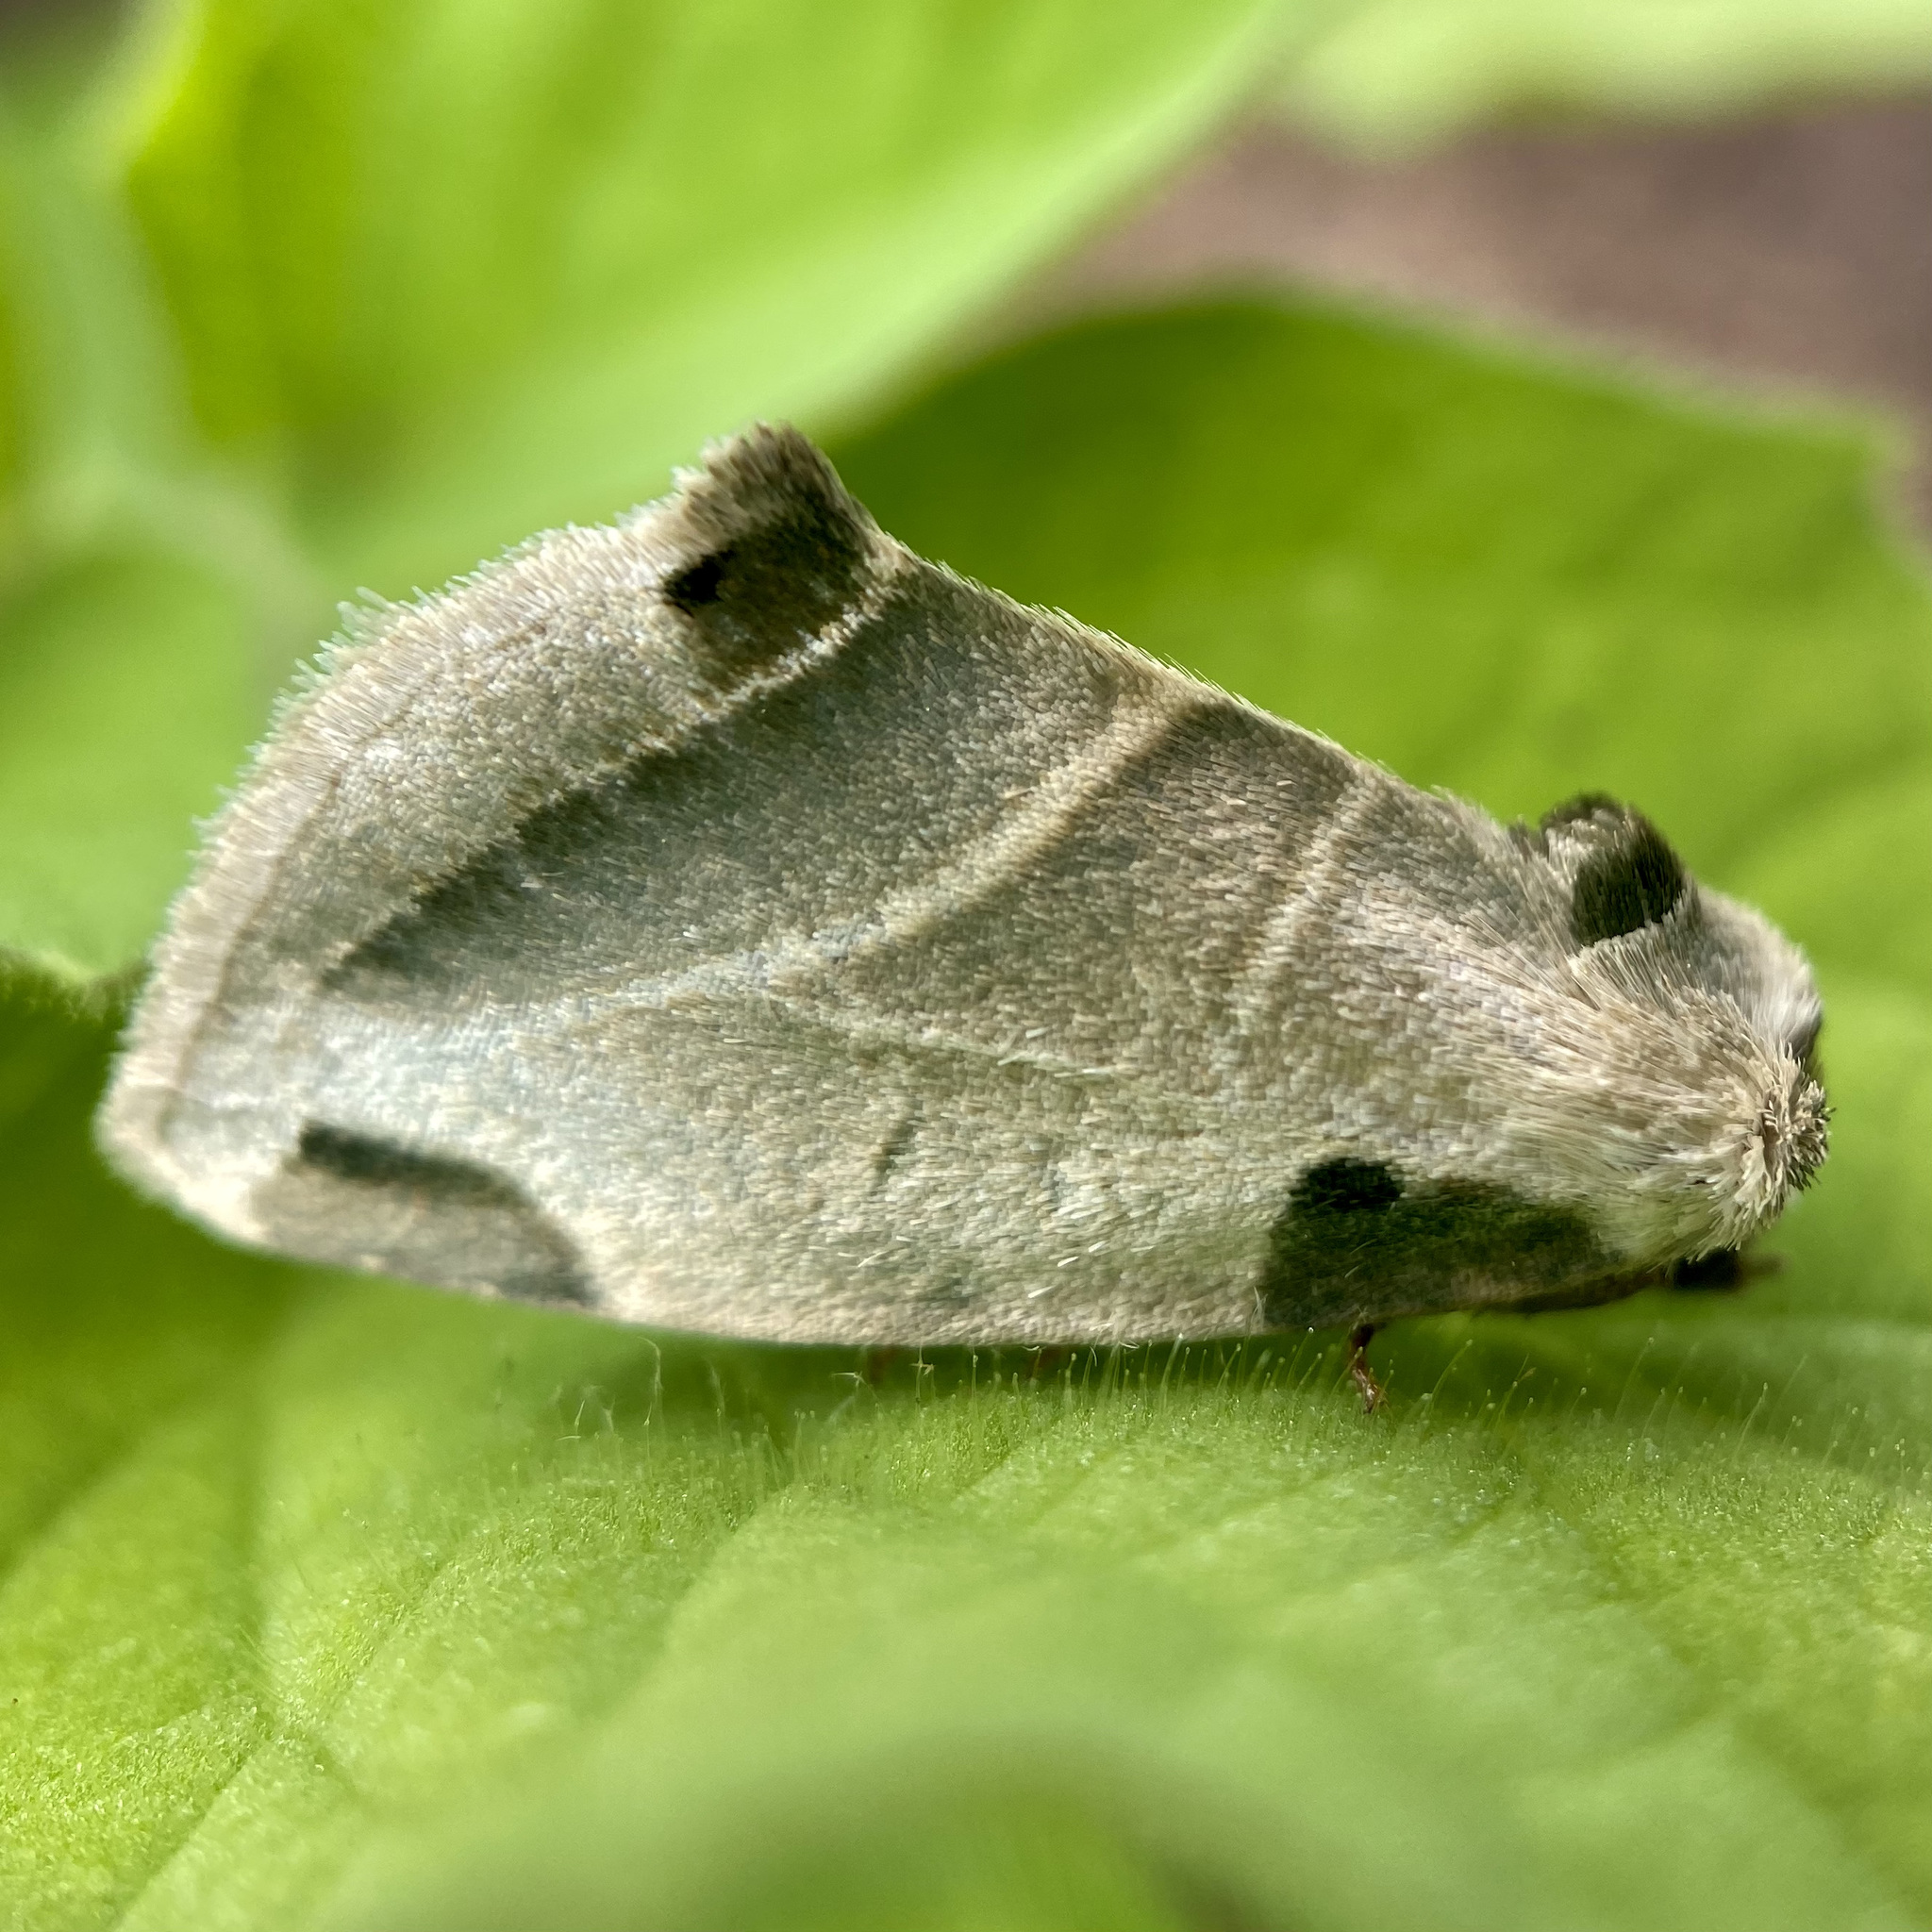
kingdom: Animalia
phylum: Arthropoda
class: Insecta
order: Lepidoptera
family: Noctuidae
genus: Heminocloa
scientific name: Heminocloa mirabilis
